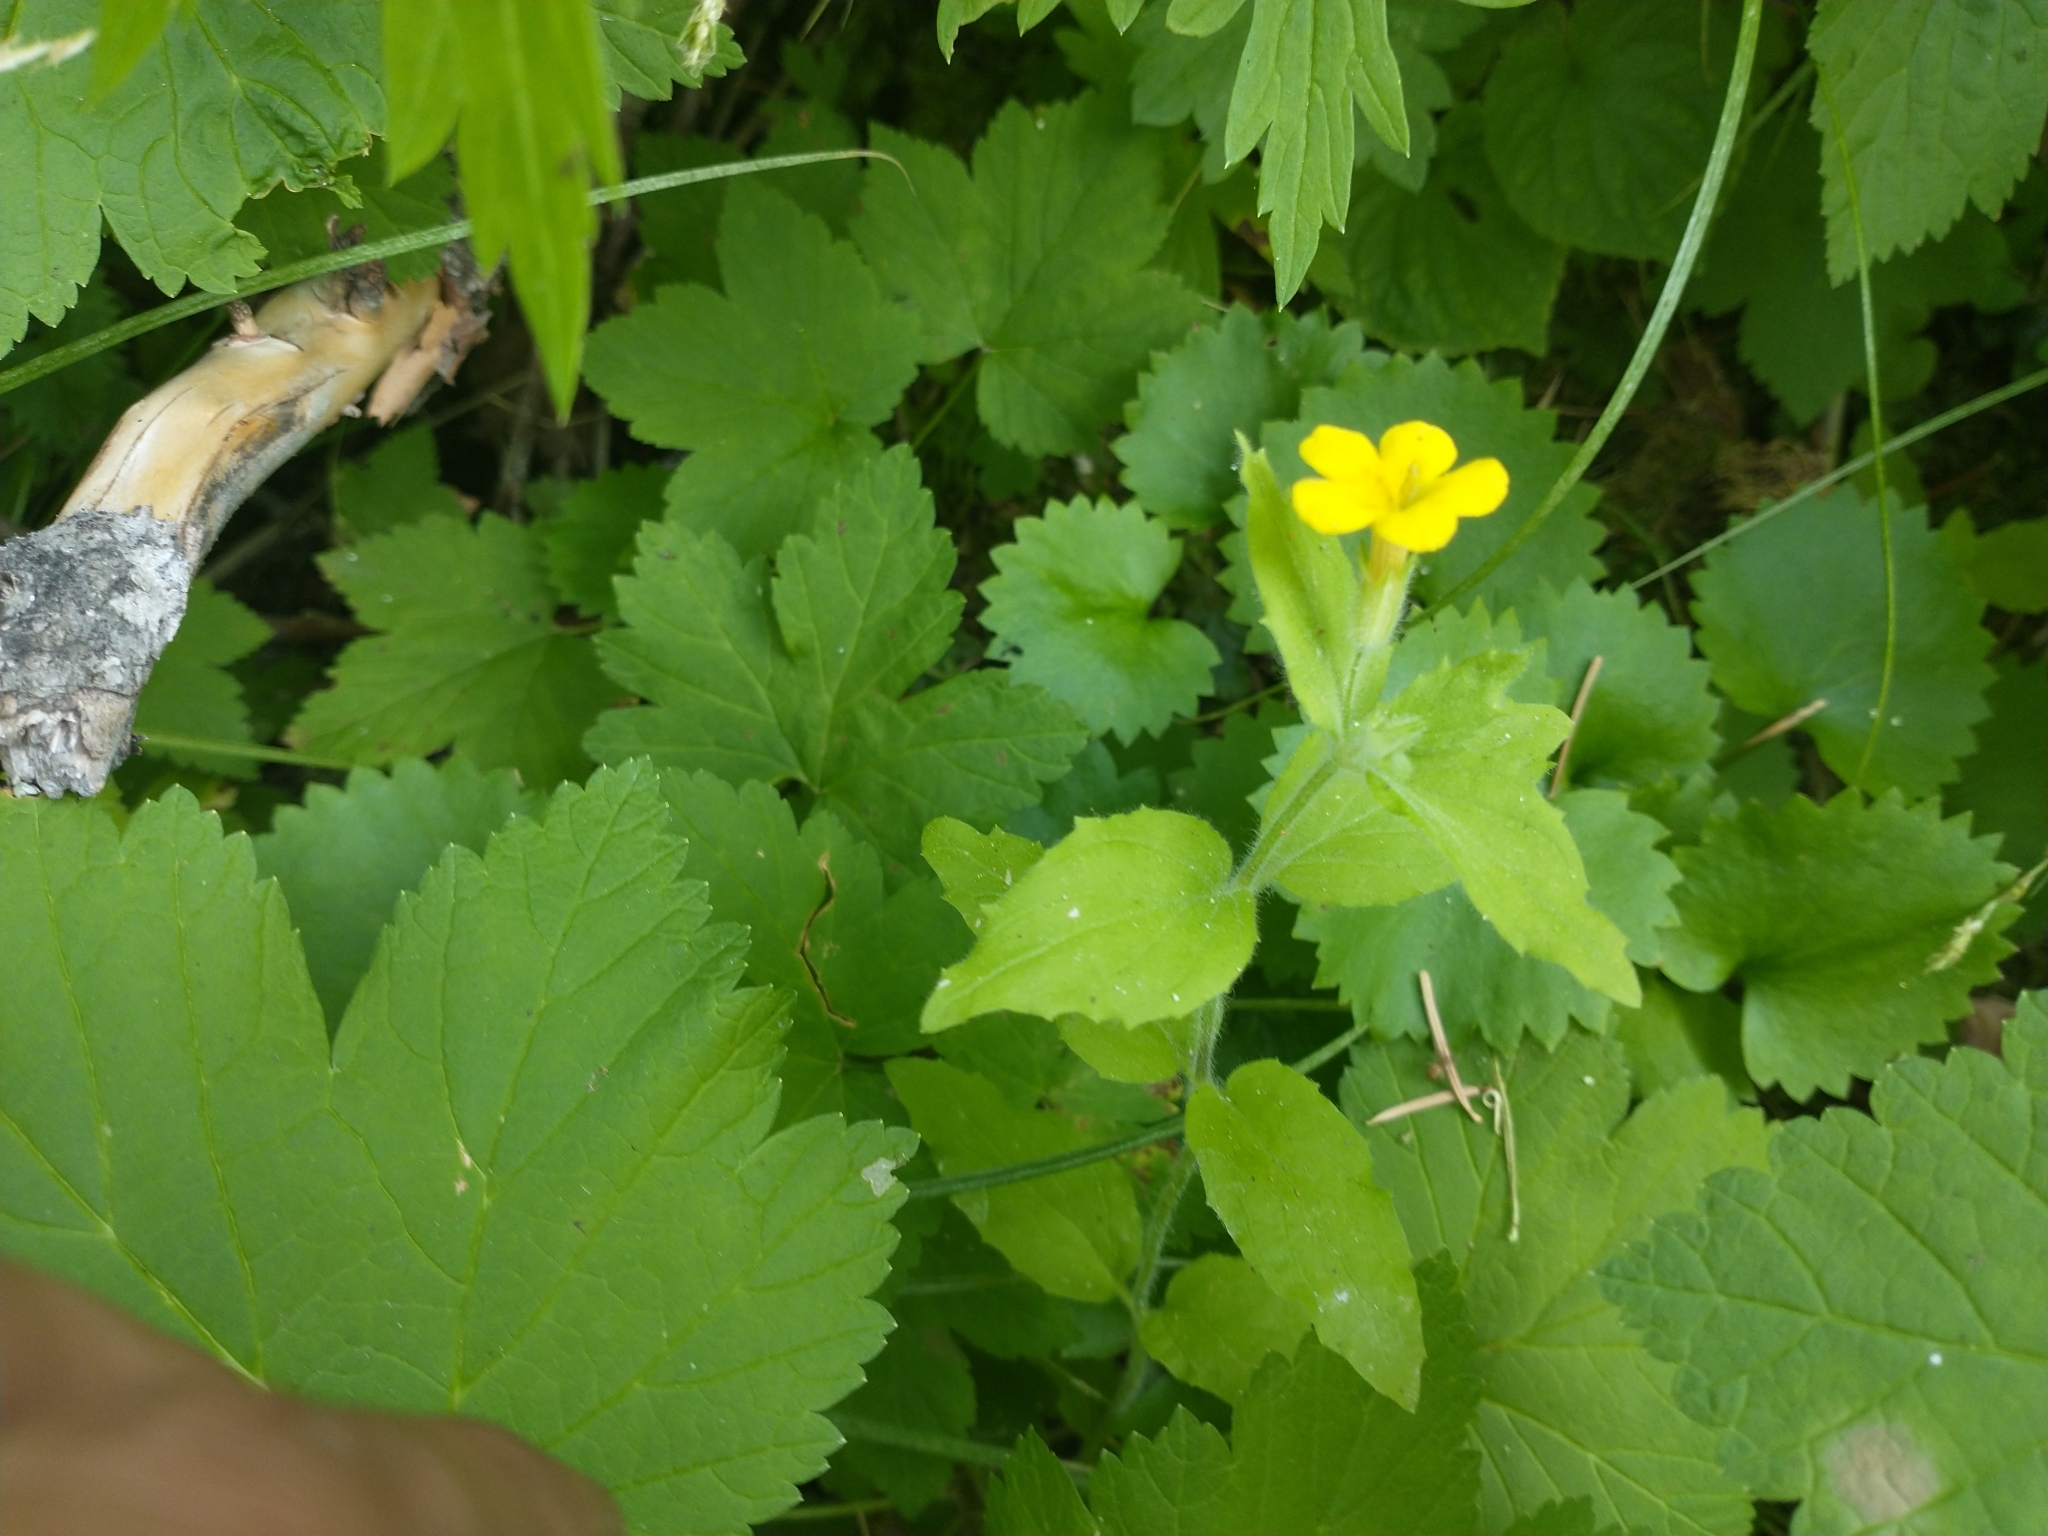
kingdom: Plantae
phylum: Tracheophyta
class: Magnoliopsida
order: Lamiales
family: Phrymaceae
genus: Erythranthe
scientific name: Erythranthe moschata
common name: Muskflower
